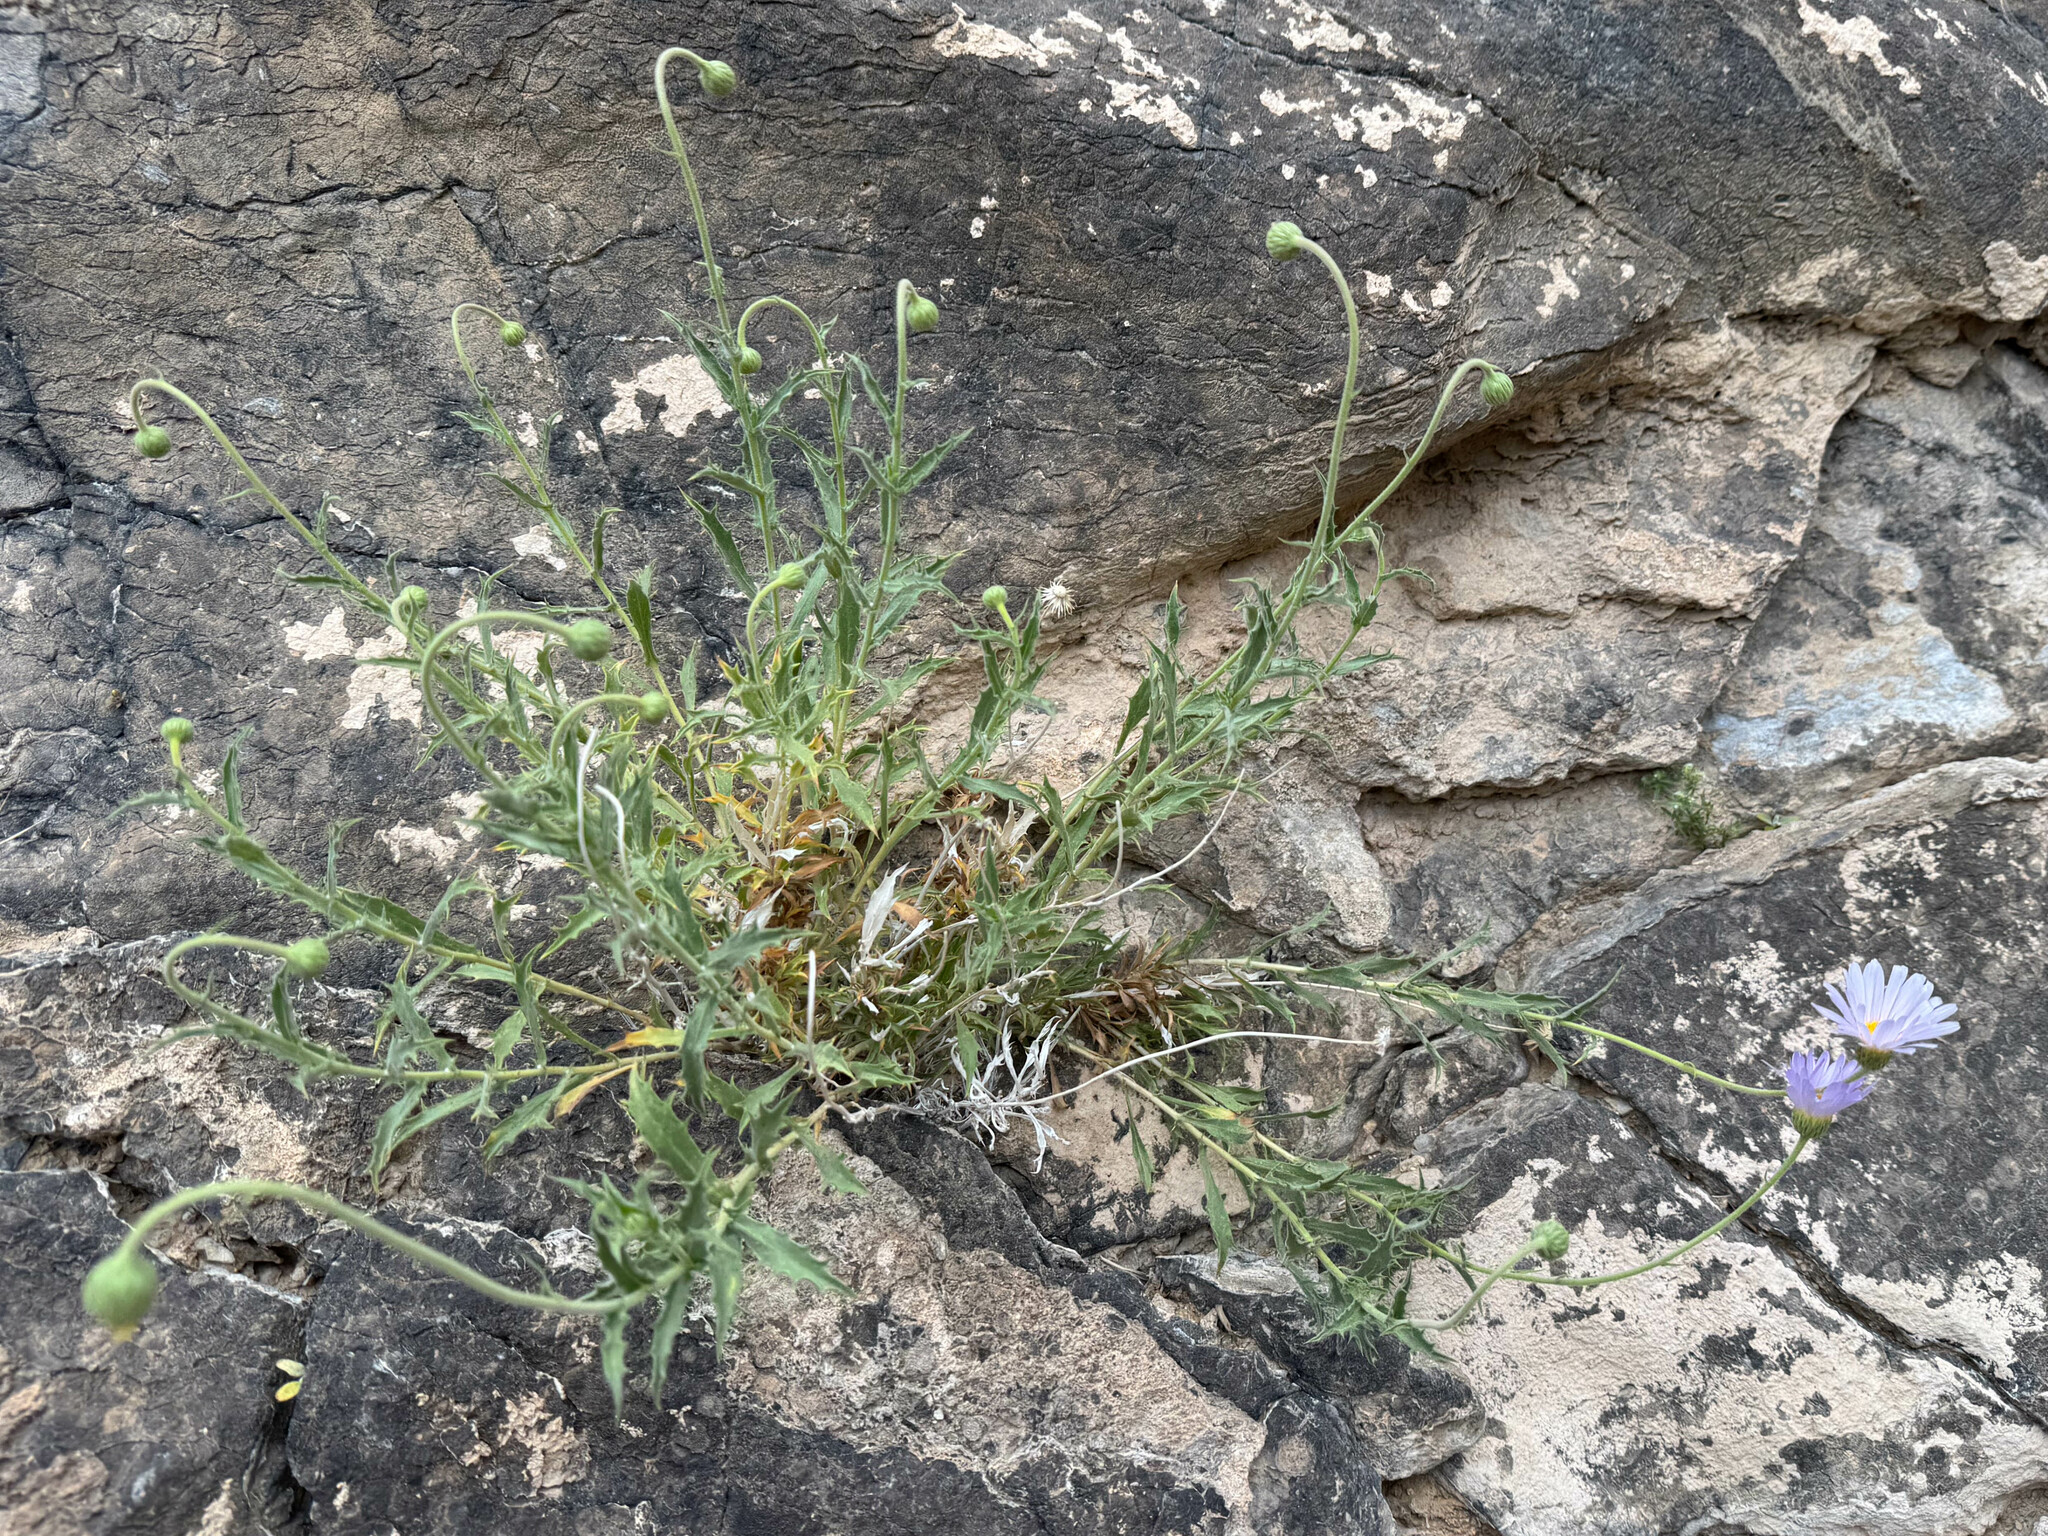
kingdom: Plantae
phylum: Tracheophyta
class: Magnoliopsida
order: Asterales
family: Asteraceae
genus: Xylorhiza
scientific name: Xylorhiza tortifolia
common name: Hurt-leaf woody-aster
